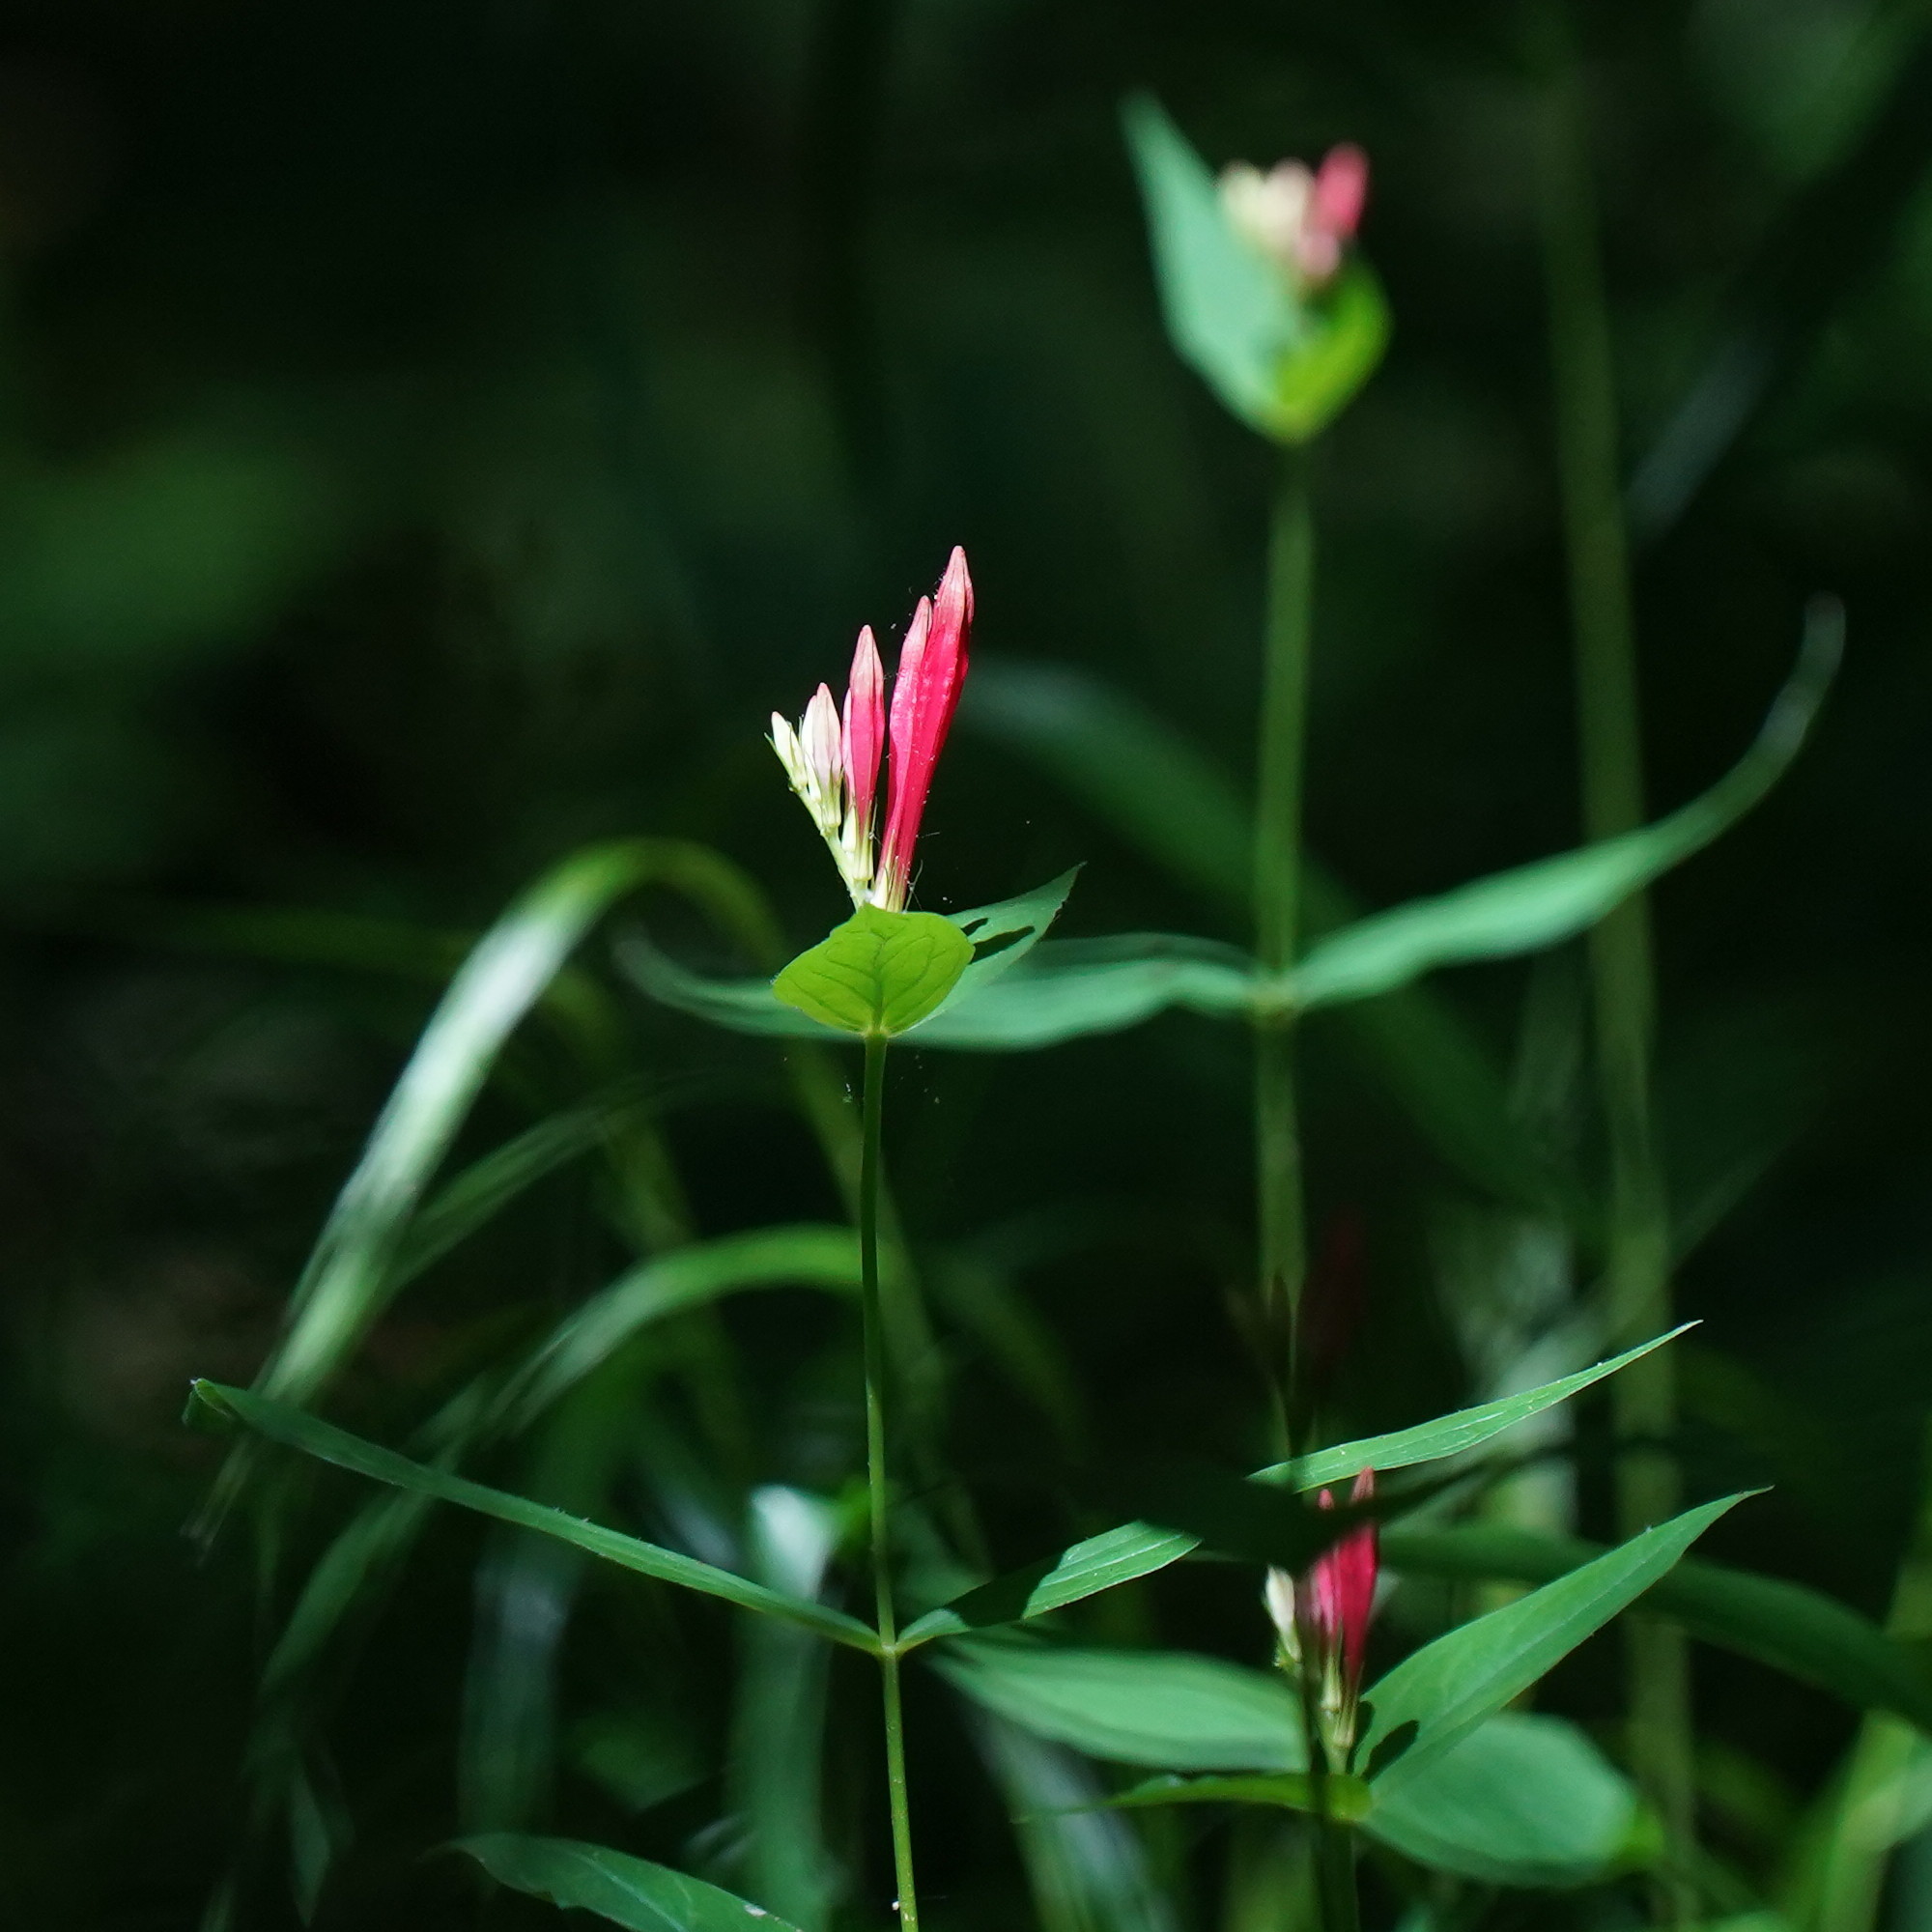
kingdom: Plantae
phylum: Tracheophyta
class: Magnoliopsida
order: Gentianales
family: Loganiaceae
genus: Spigelia
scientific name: Spigelia marilandica
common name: Indian-pink
